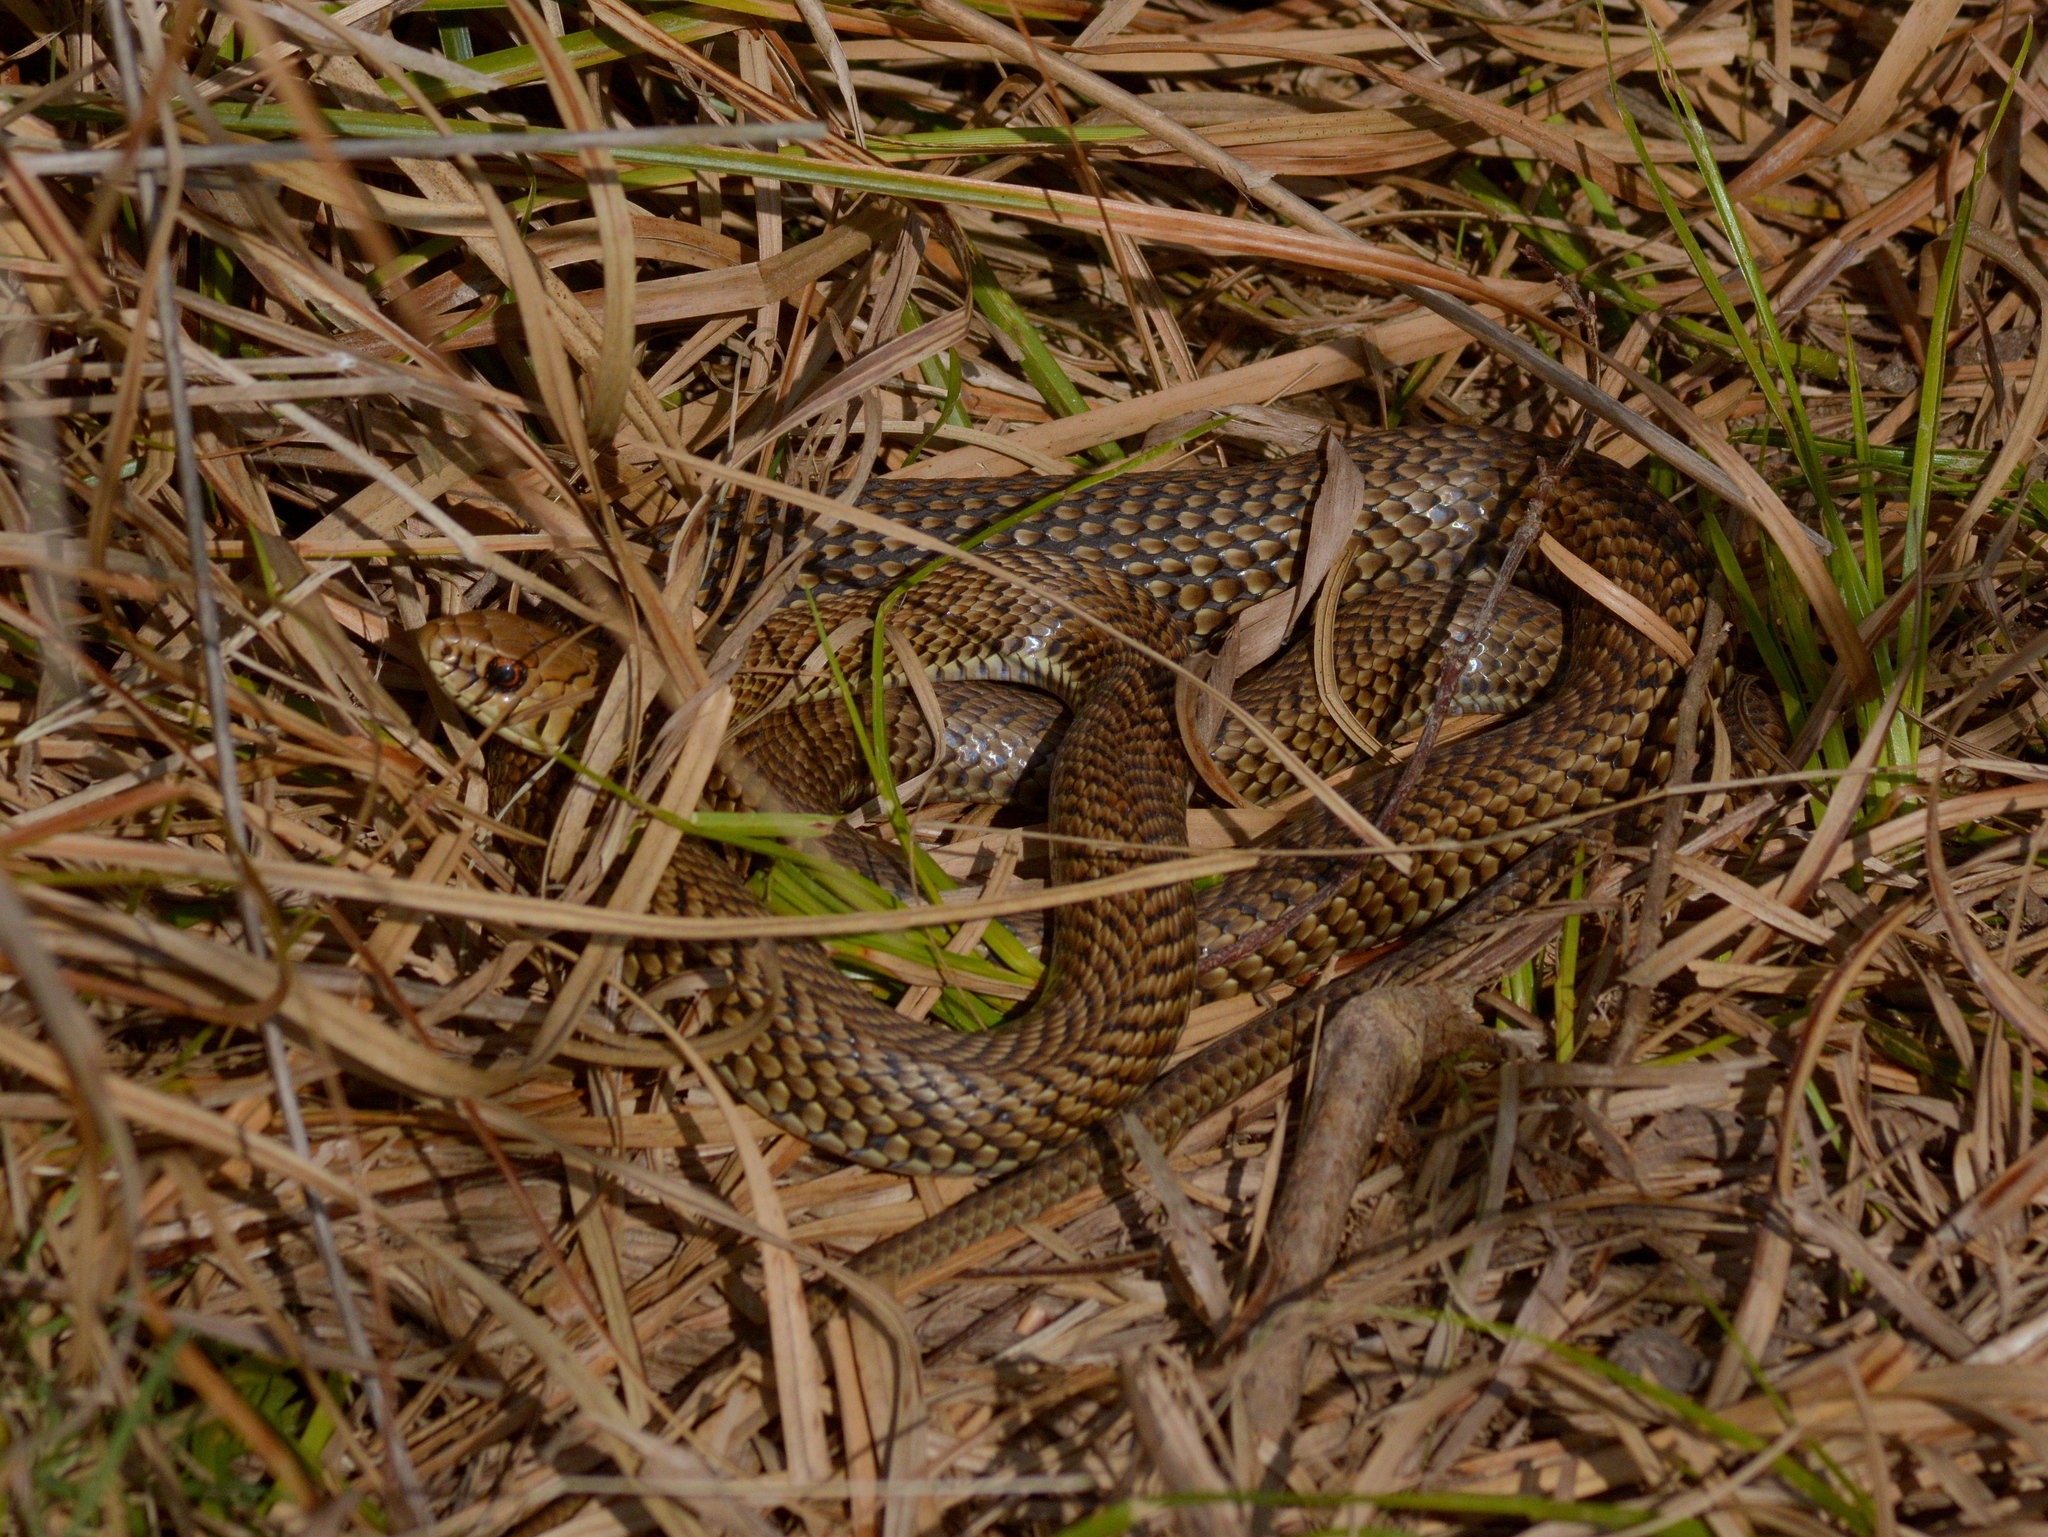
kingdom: Animalia
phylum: Chordata
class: Squamata
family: Colubridae
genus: Philodryas
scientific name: Philodryas patagoniensis
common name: Patagonia green racer
